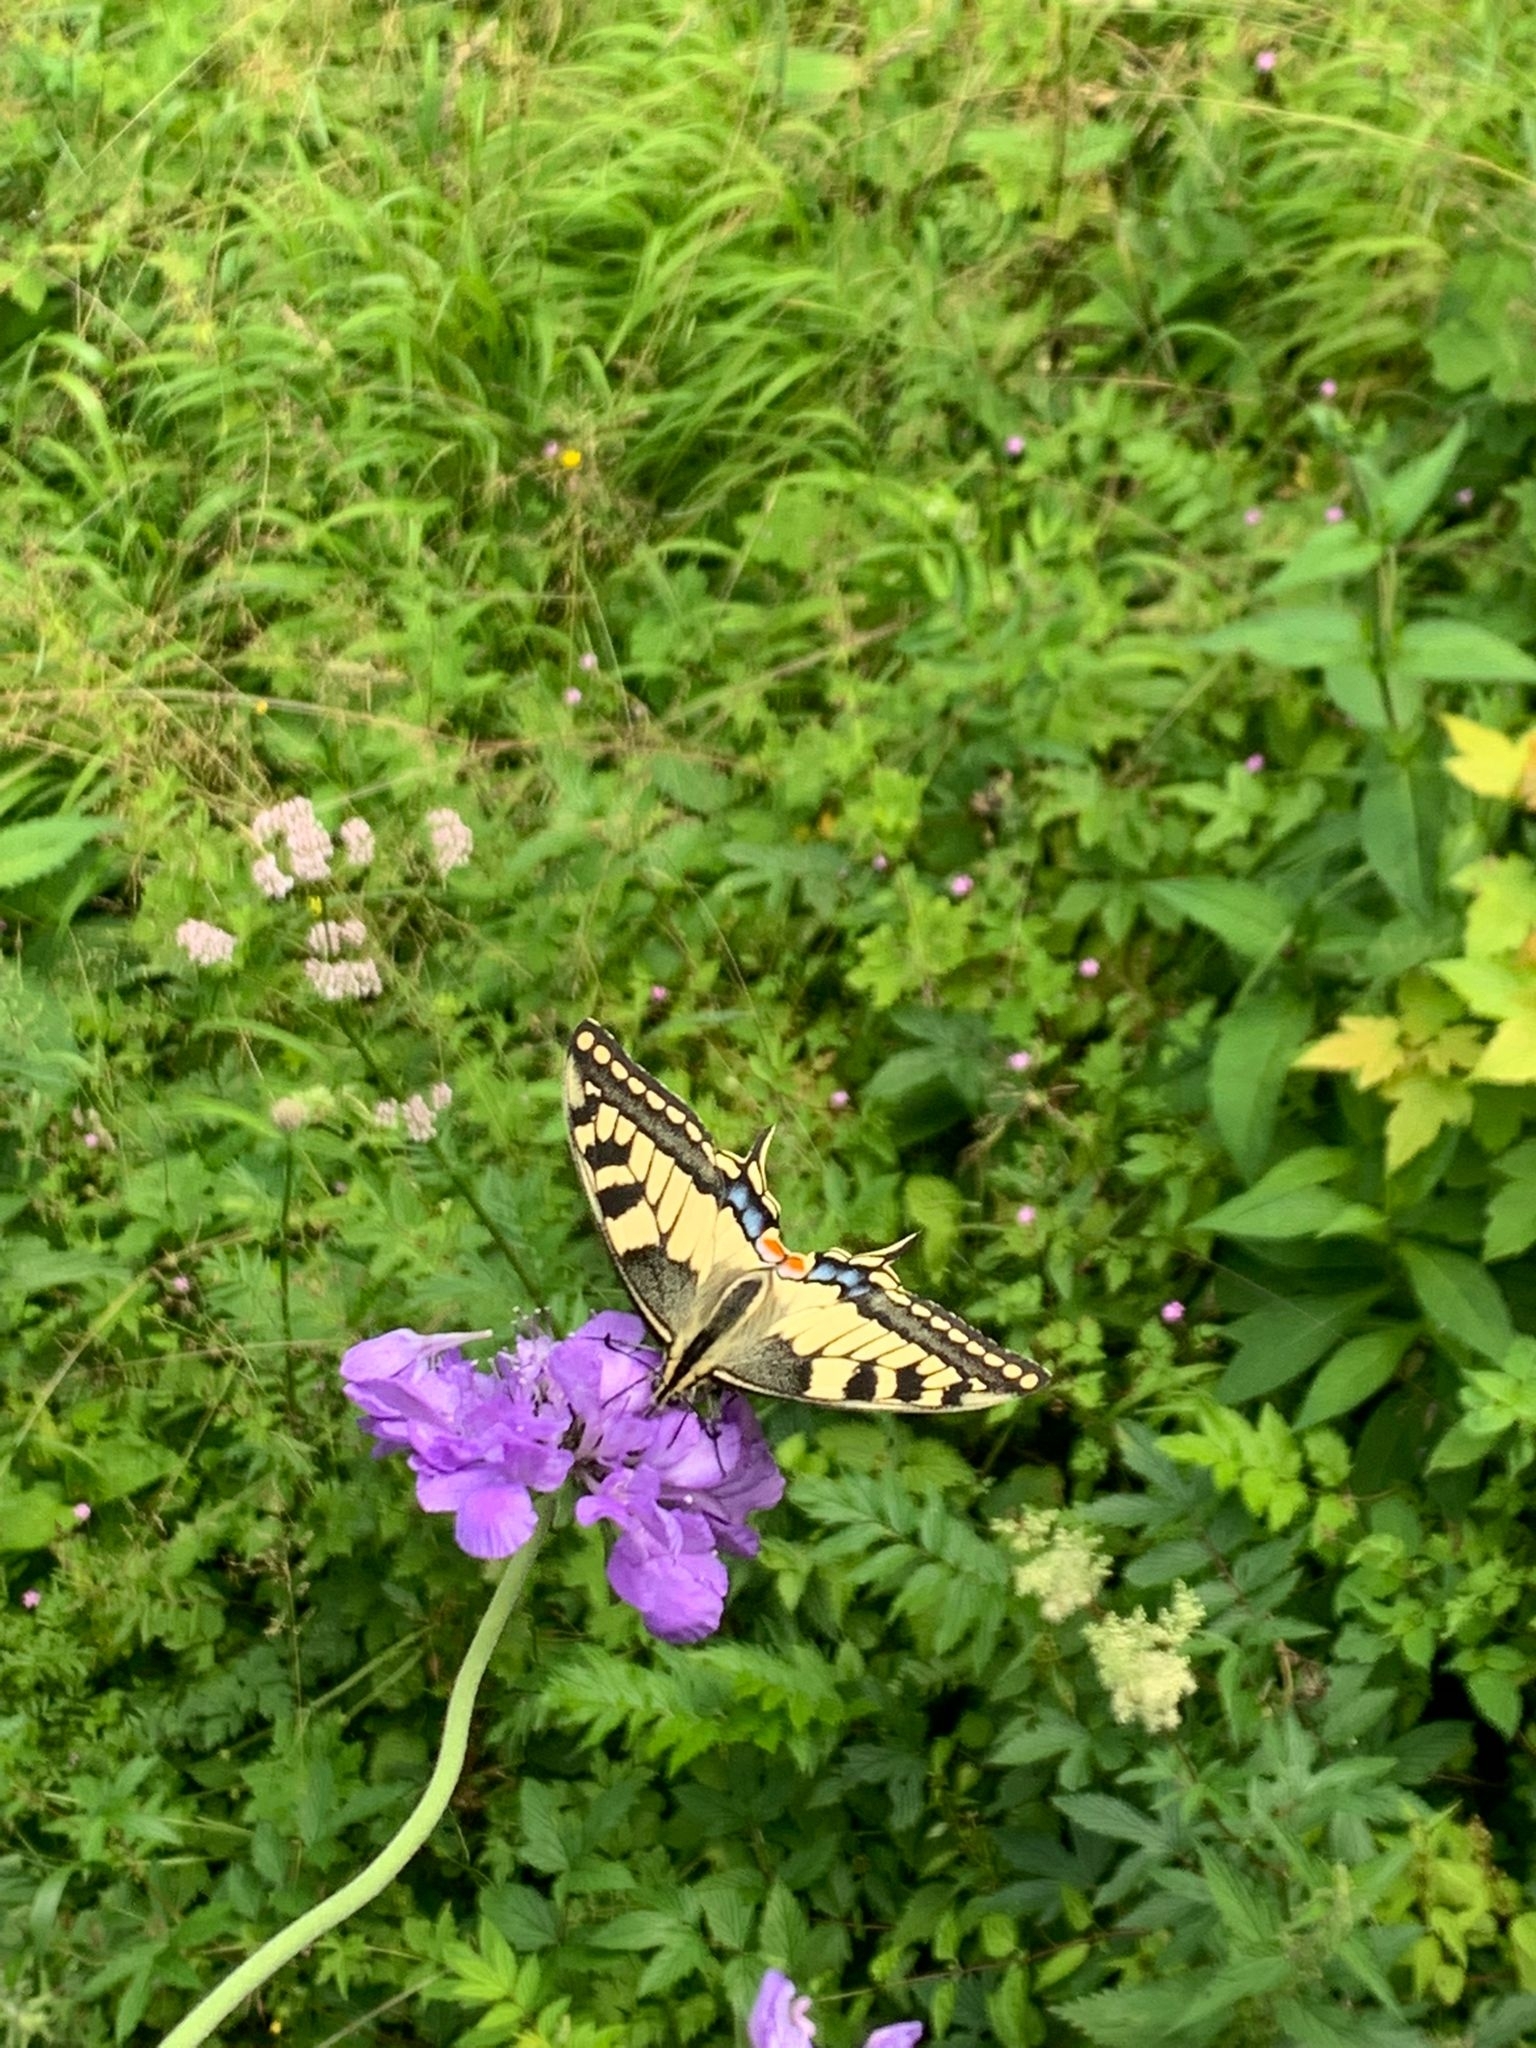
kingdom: Animalia
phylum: Arthropoda
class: Insecta
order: Lepidoptera
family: Papilionidae
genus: Papilio
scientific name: Papilio machaon
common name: Swallowtail
